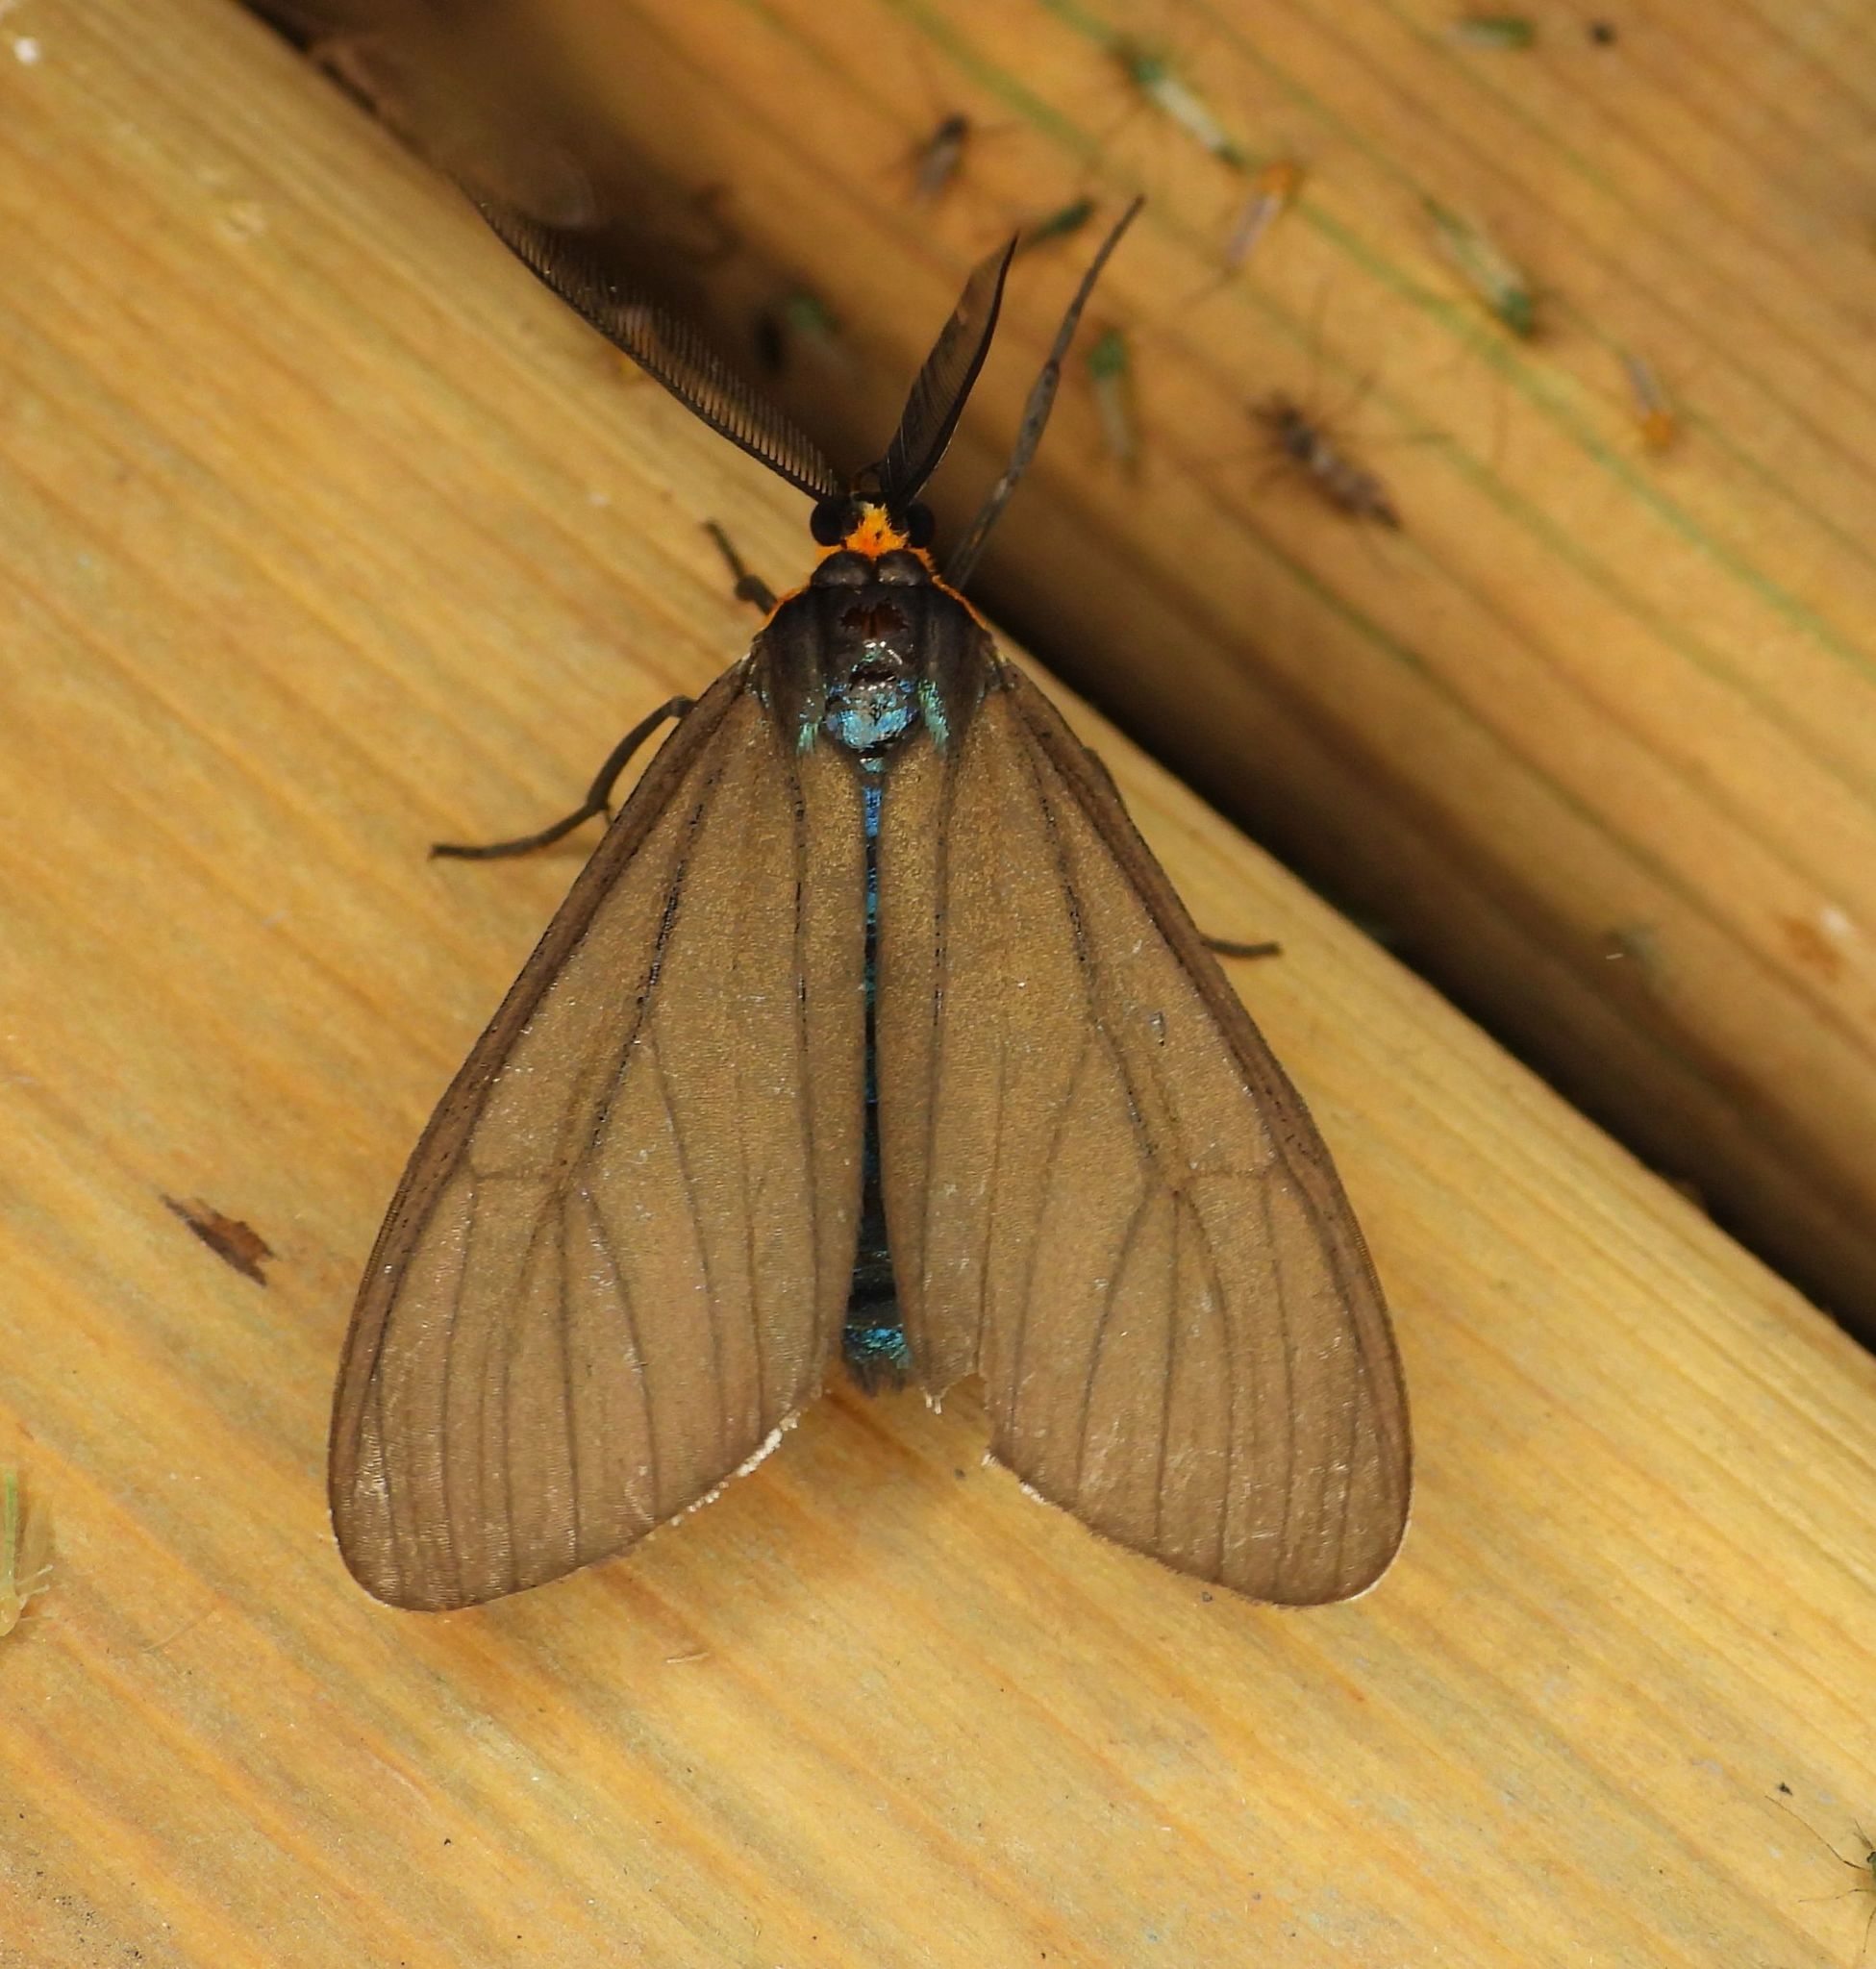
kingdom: Animalia
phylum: Arthropoda
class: Insecta
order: Lepidoptera
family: Erebidae
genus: Ctenucha
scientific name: Ctenucha virginica
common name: Virginia ctenucha moth
